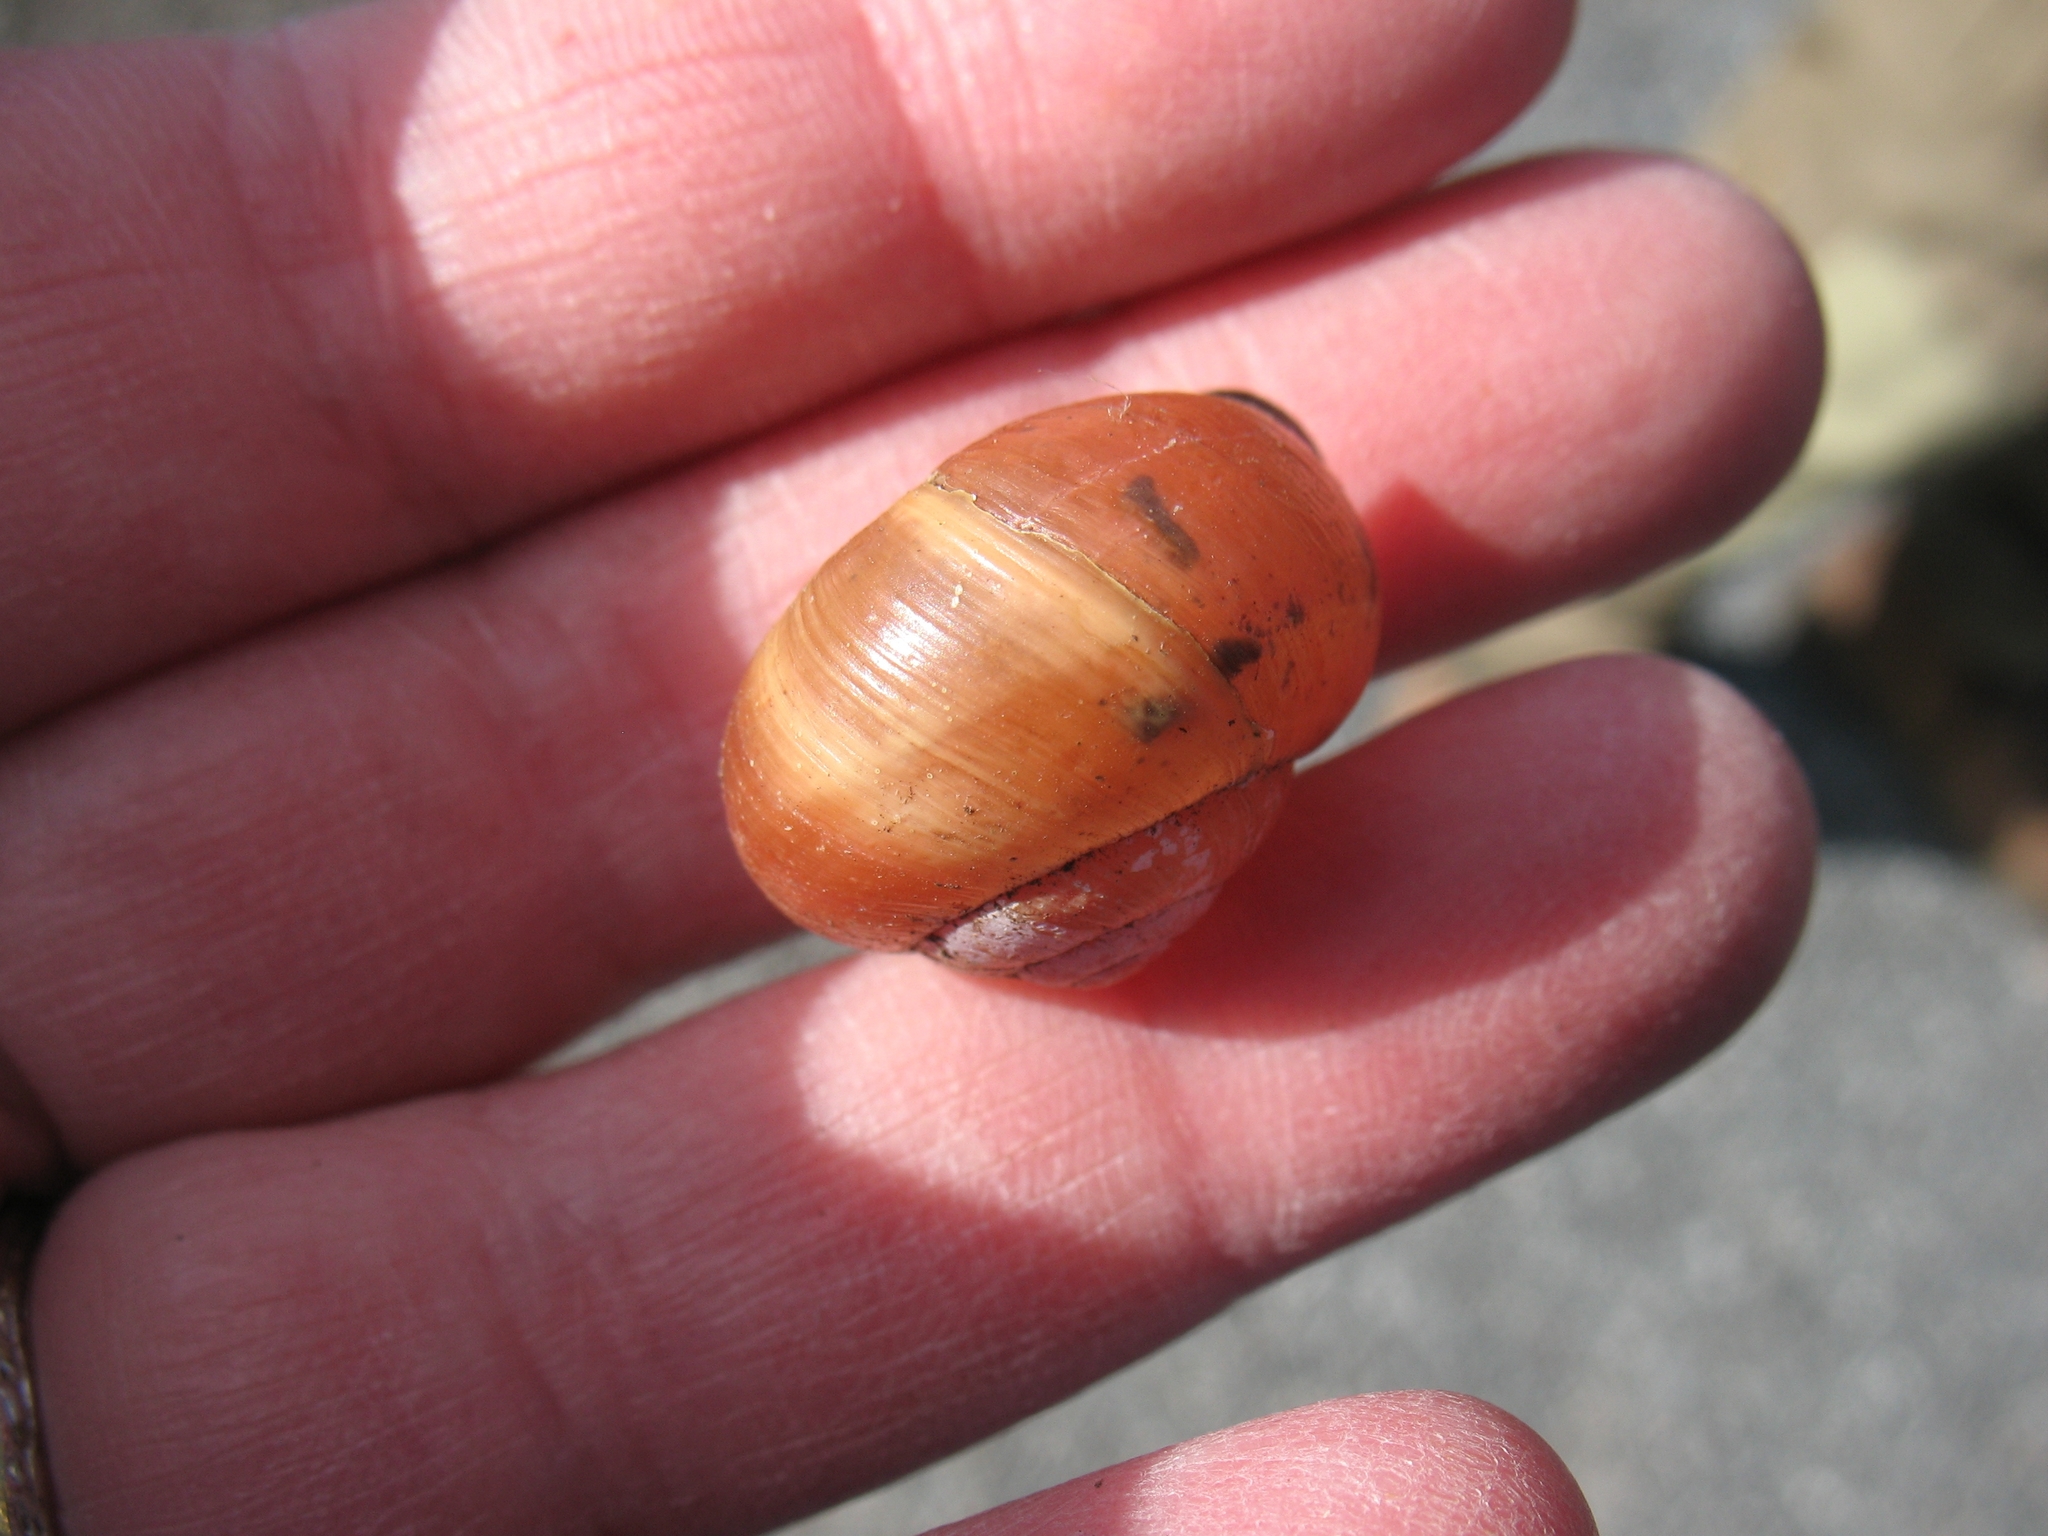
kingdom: Animalia
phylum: Mollusca
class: Gastropoda
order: Stylommatophora
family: Helicidae
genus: Cepaea
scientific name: Cepaea nemoralis
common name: Grovesnail
